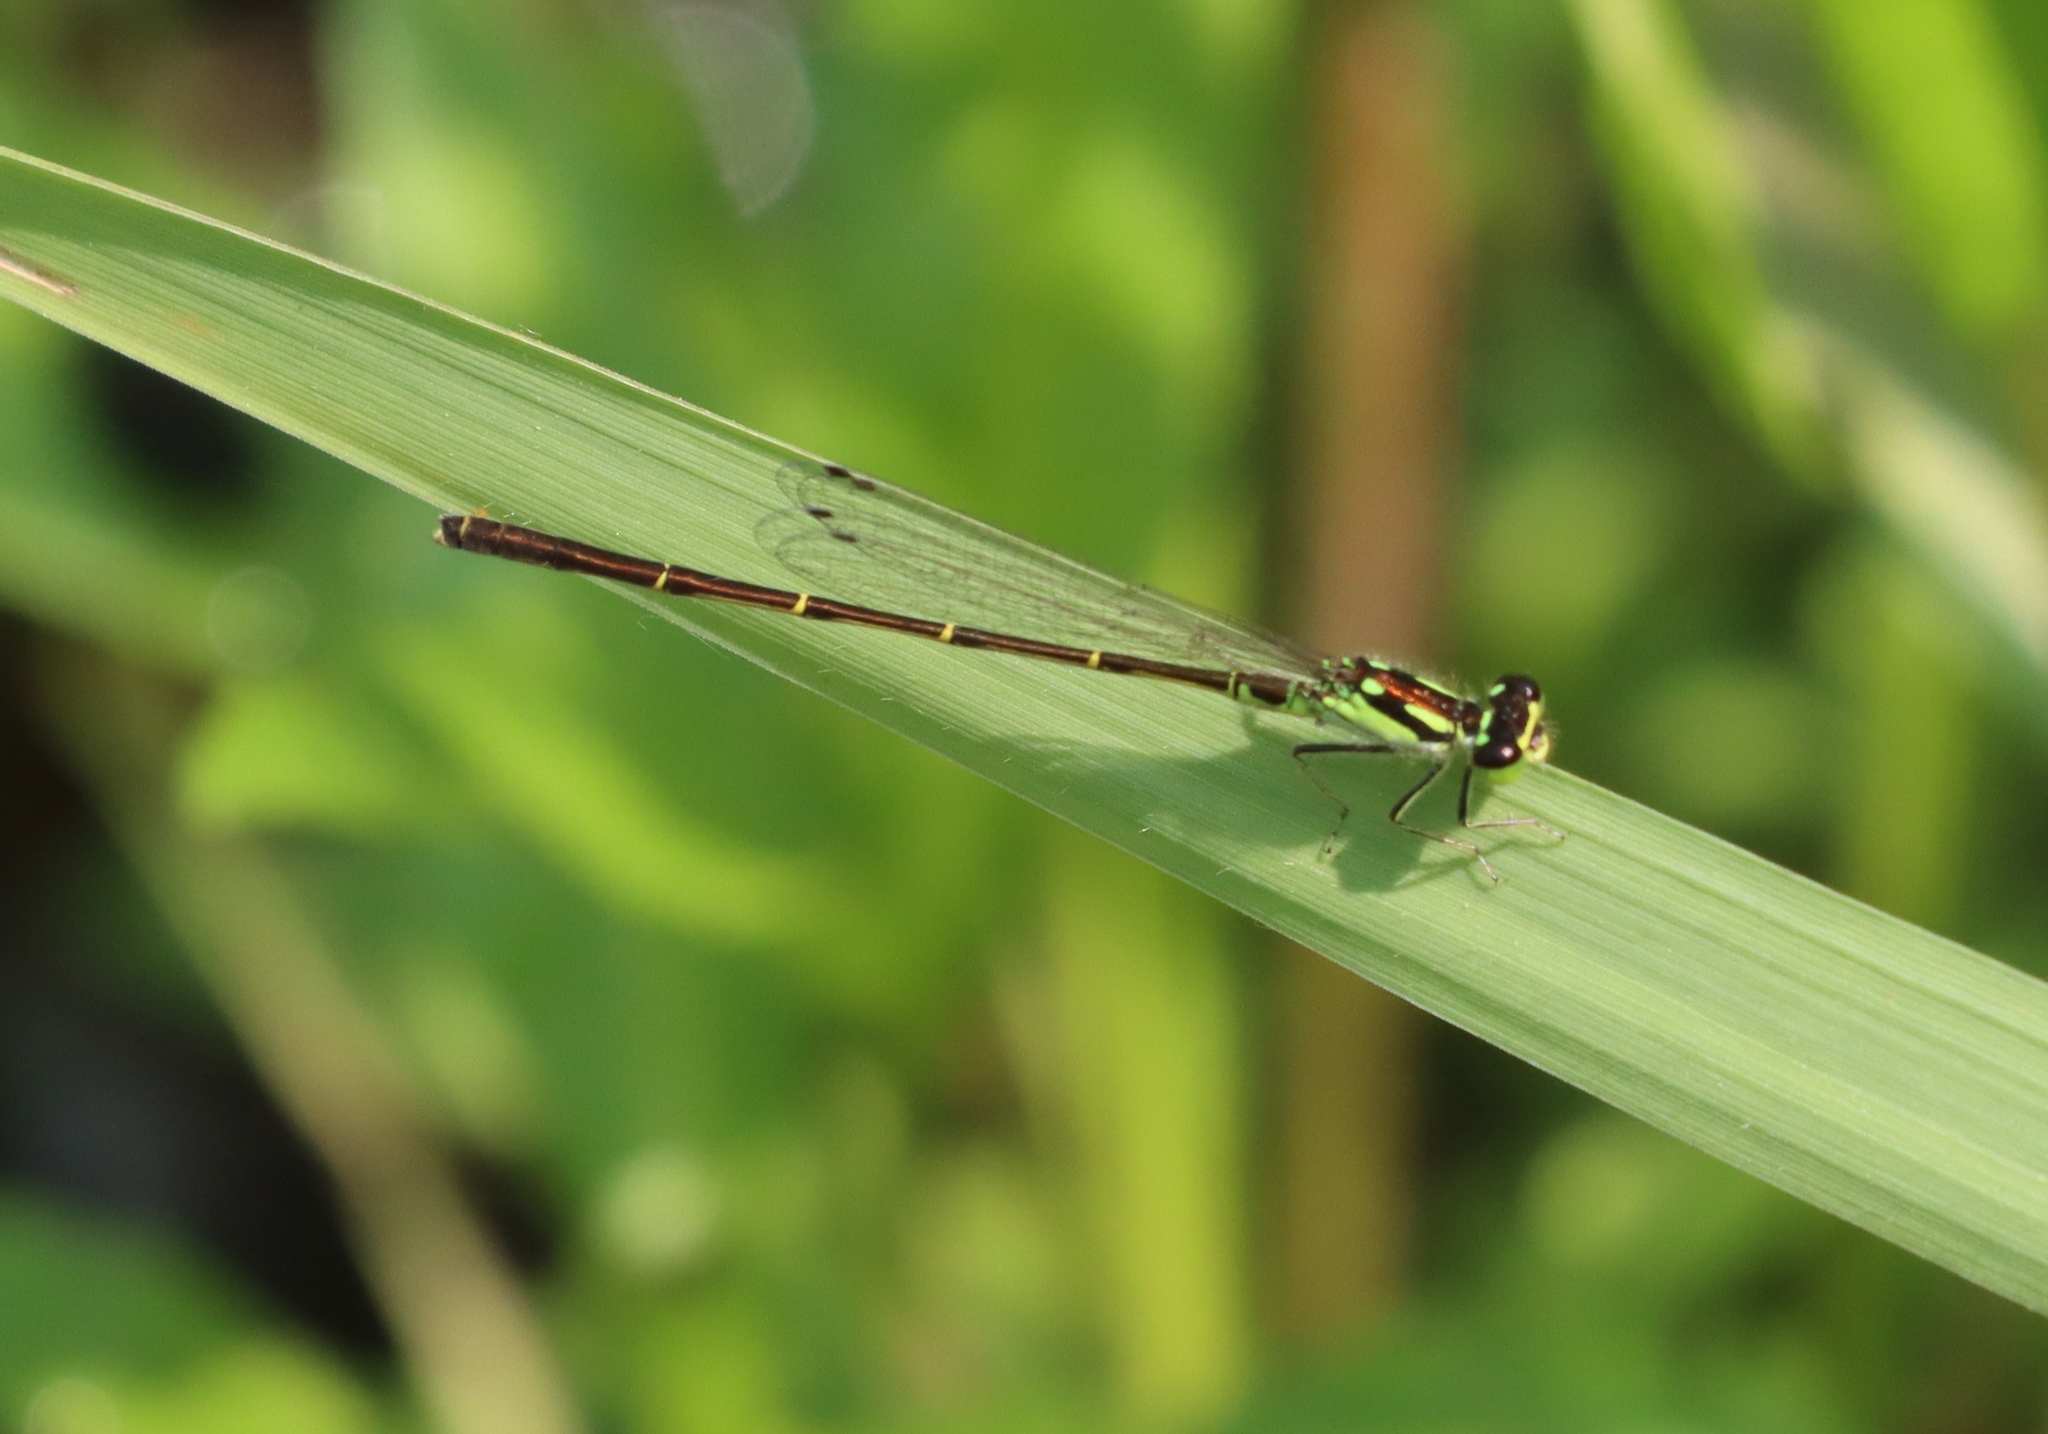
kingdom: Animalia
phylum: Arthropoda
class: Insecta
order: Odonata
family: Coenagrionidae
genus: Ischnura
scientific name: Ischnura posita
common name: Fragile forktail
